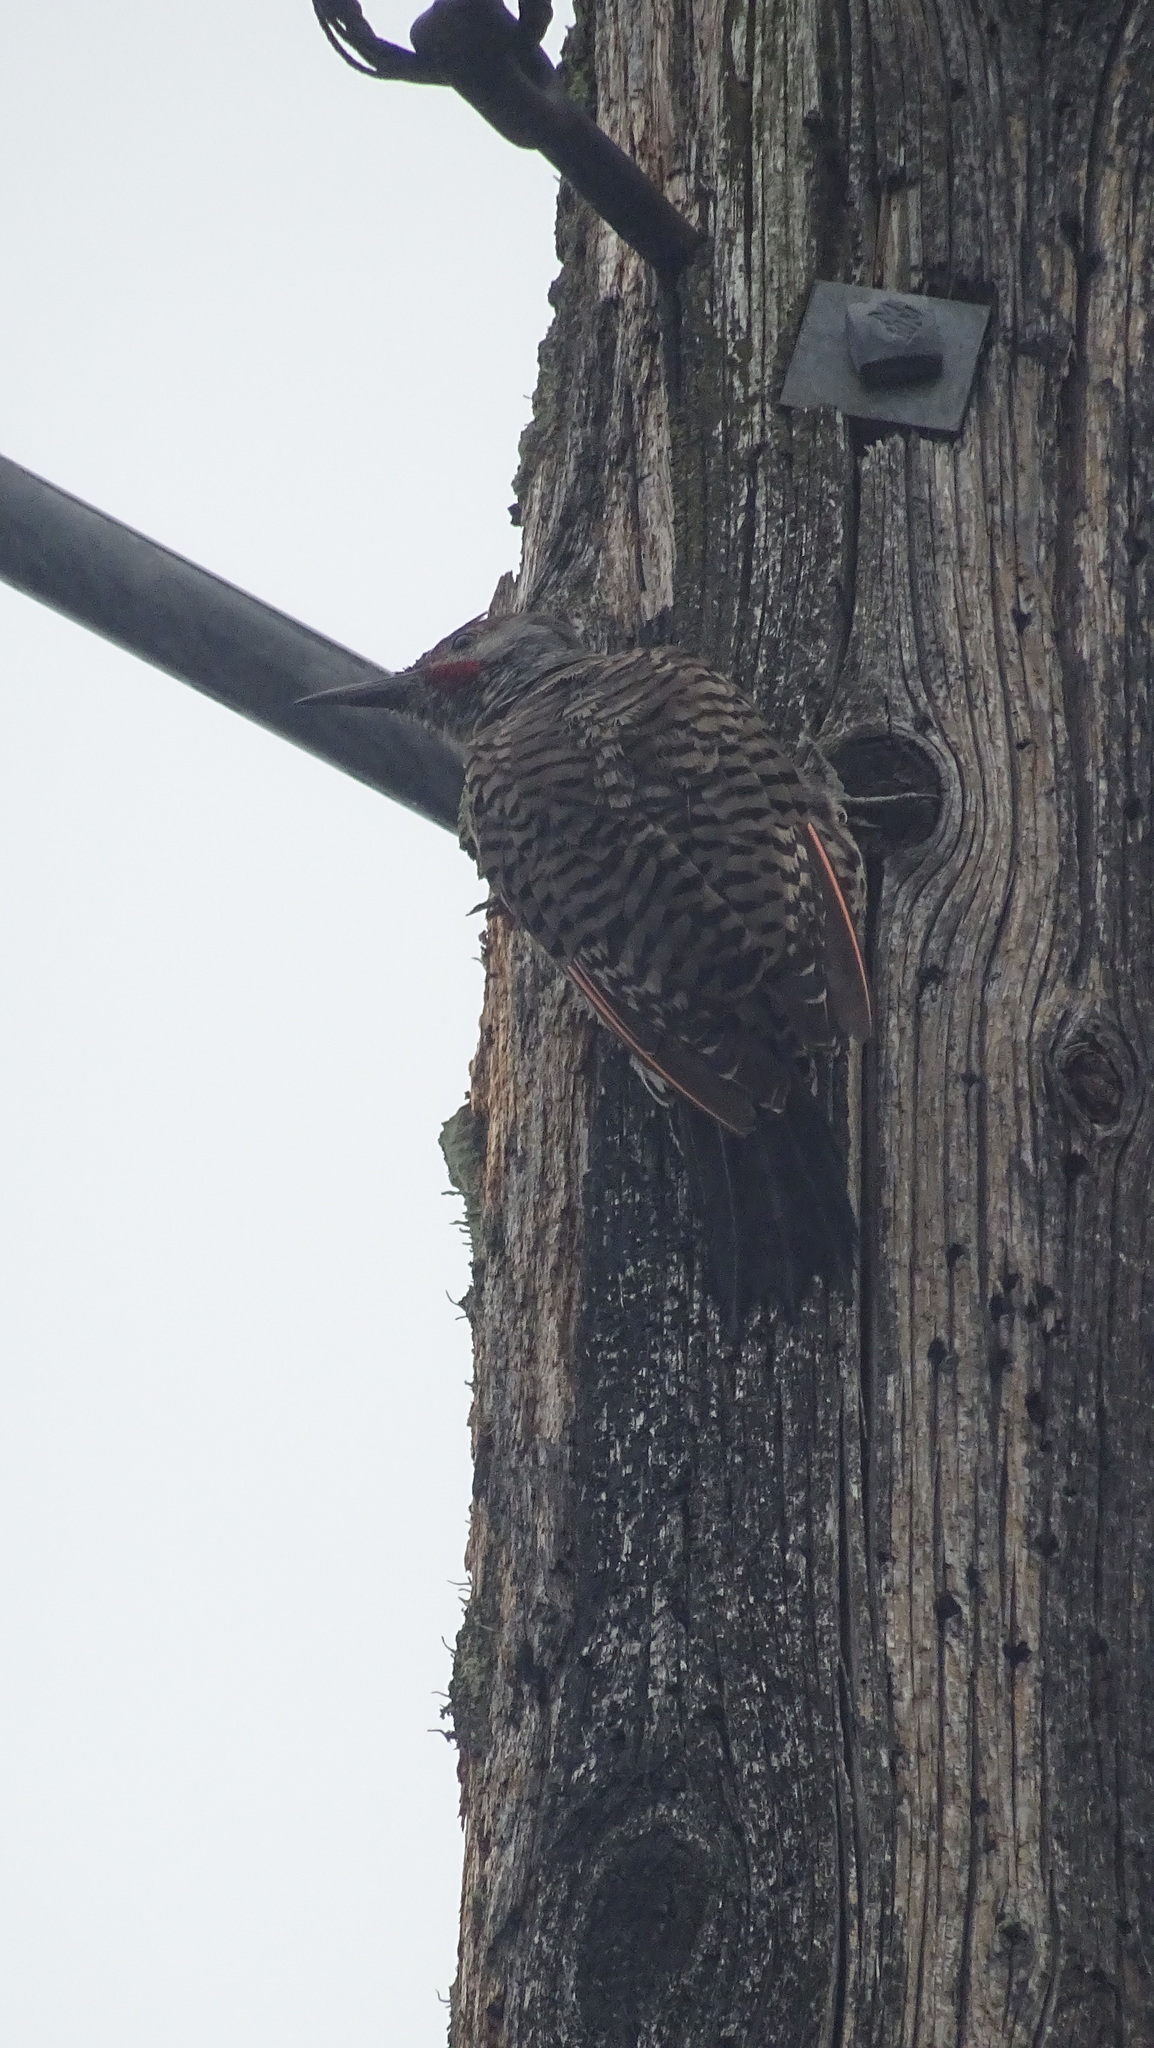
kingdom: Animalia
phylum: Chordata
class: Aves
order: Piciformes
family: Picidae
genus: Colaptes
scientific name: Colaptes auratus
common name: Northern flicker
